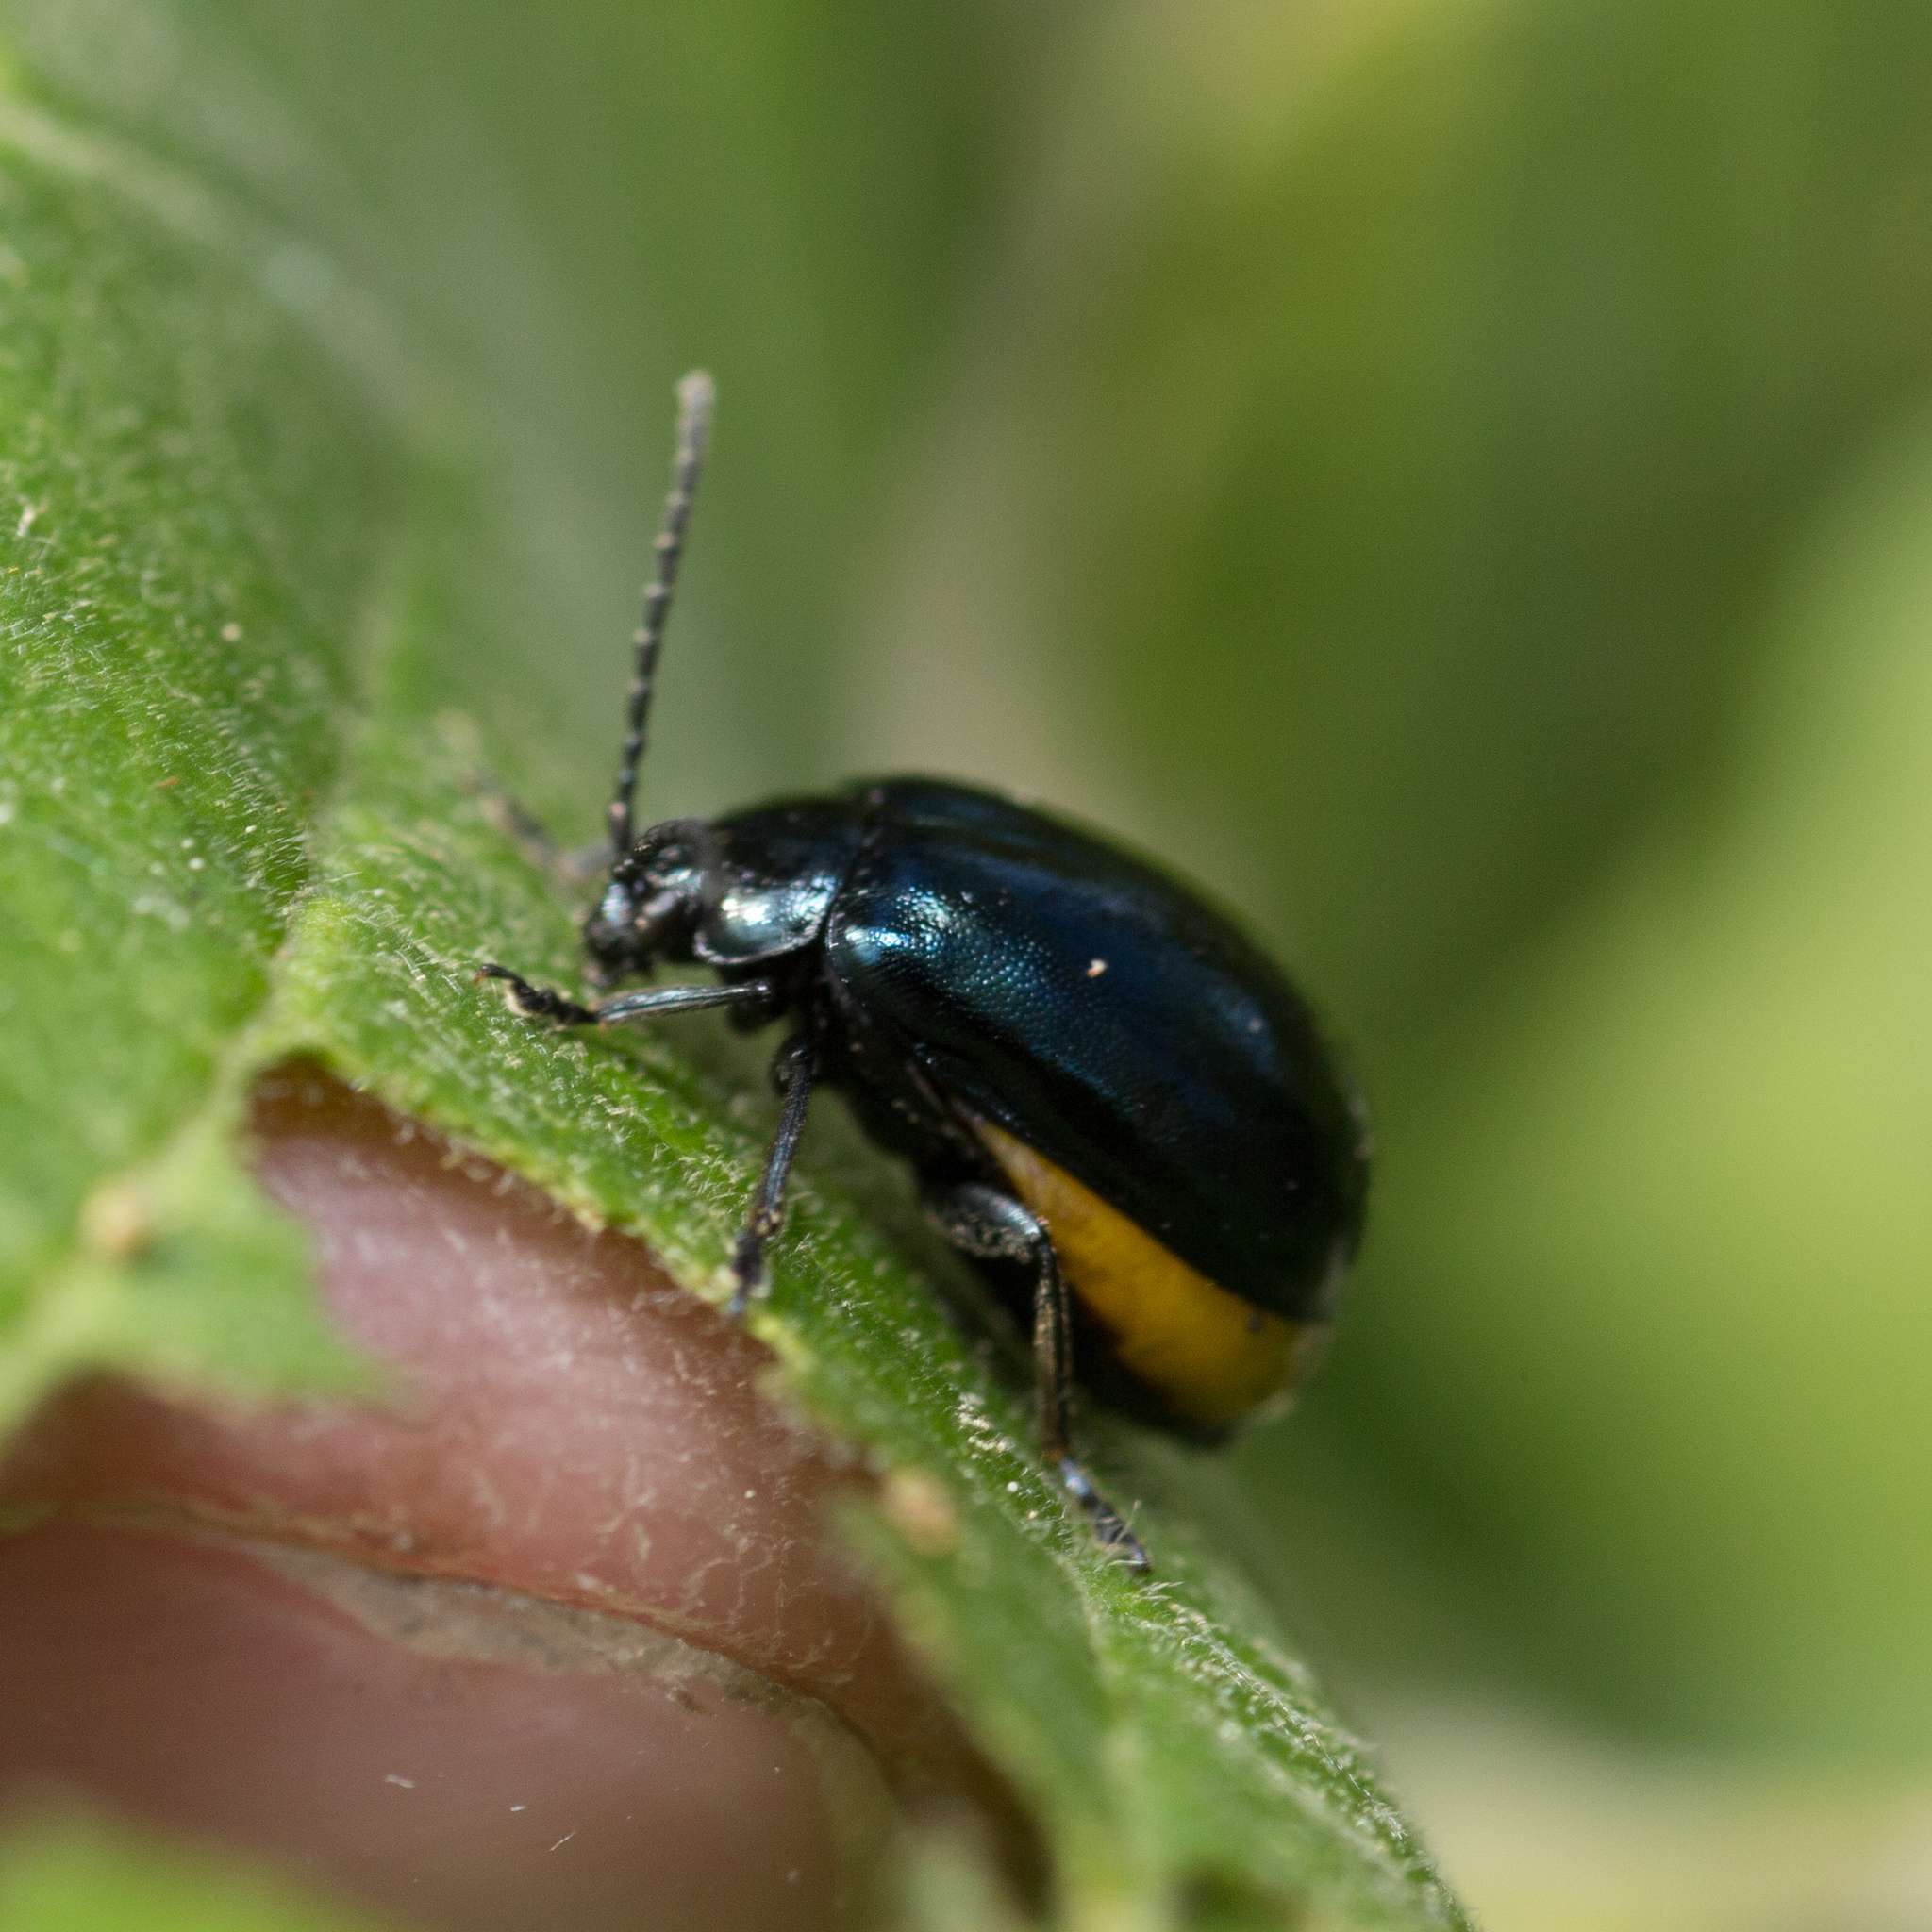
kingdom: Animalia
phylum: Arthropoda
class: Insecta
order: Coleoptera
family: Chrysomelidae
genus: Agelastica
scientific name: Agelastica alni
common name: Alder leaf beetle
